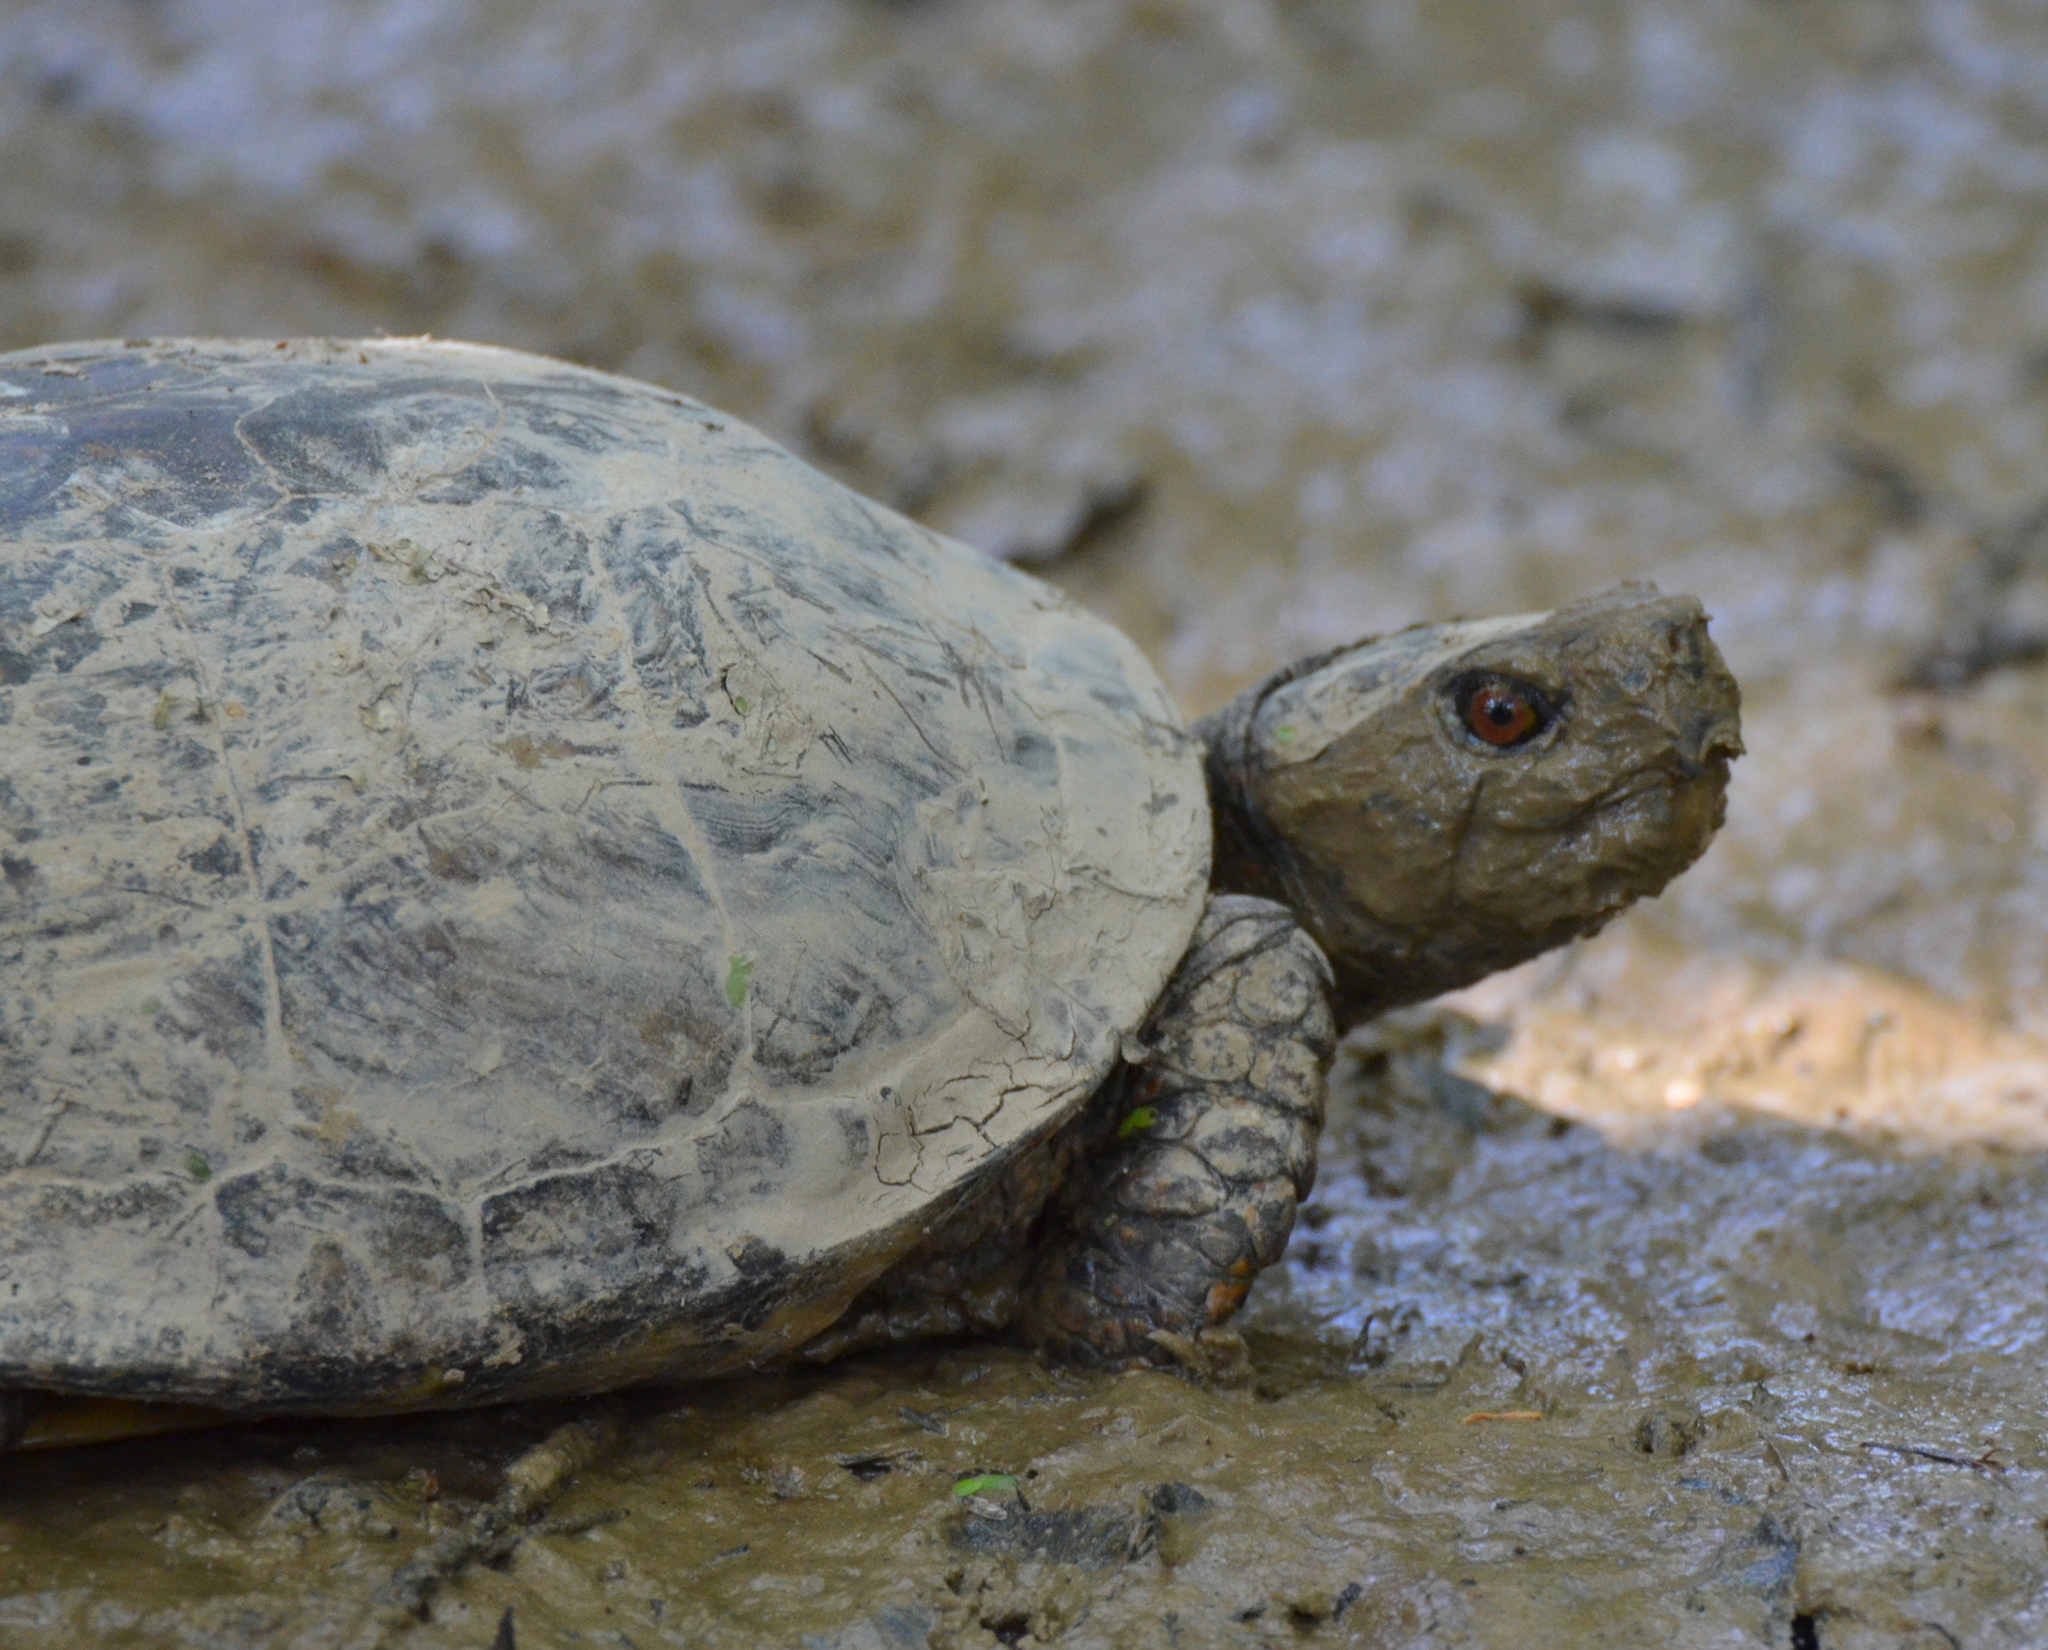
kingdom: Animalia
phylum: Chordata
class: Testudines
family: Emydidae
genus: Terrapene
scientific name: Terrapene carolina
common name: Common box turtle
